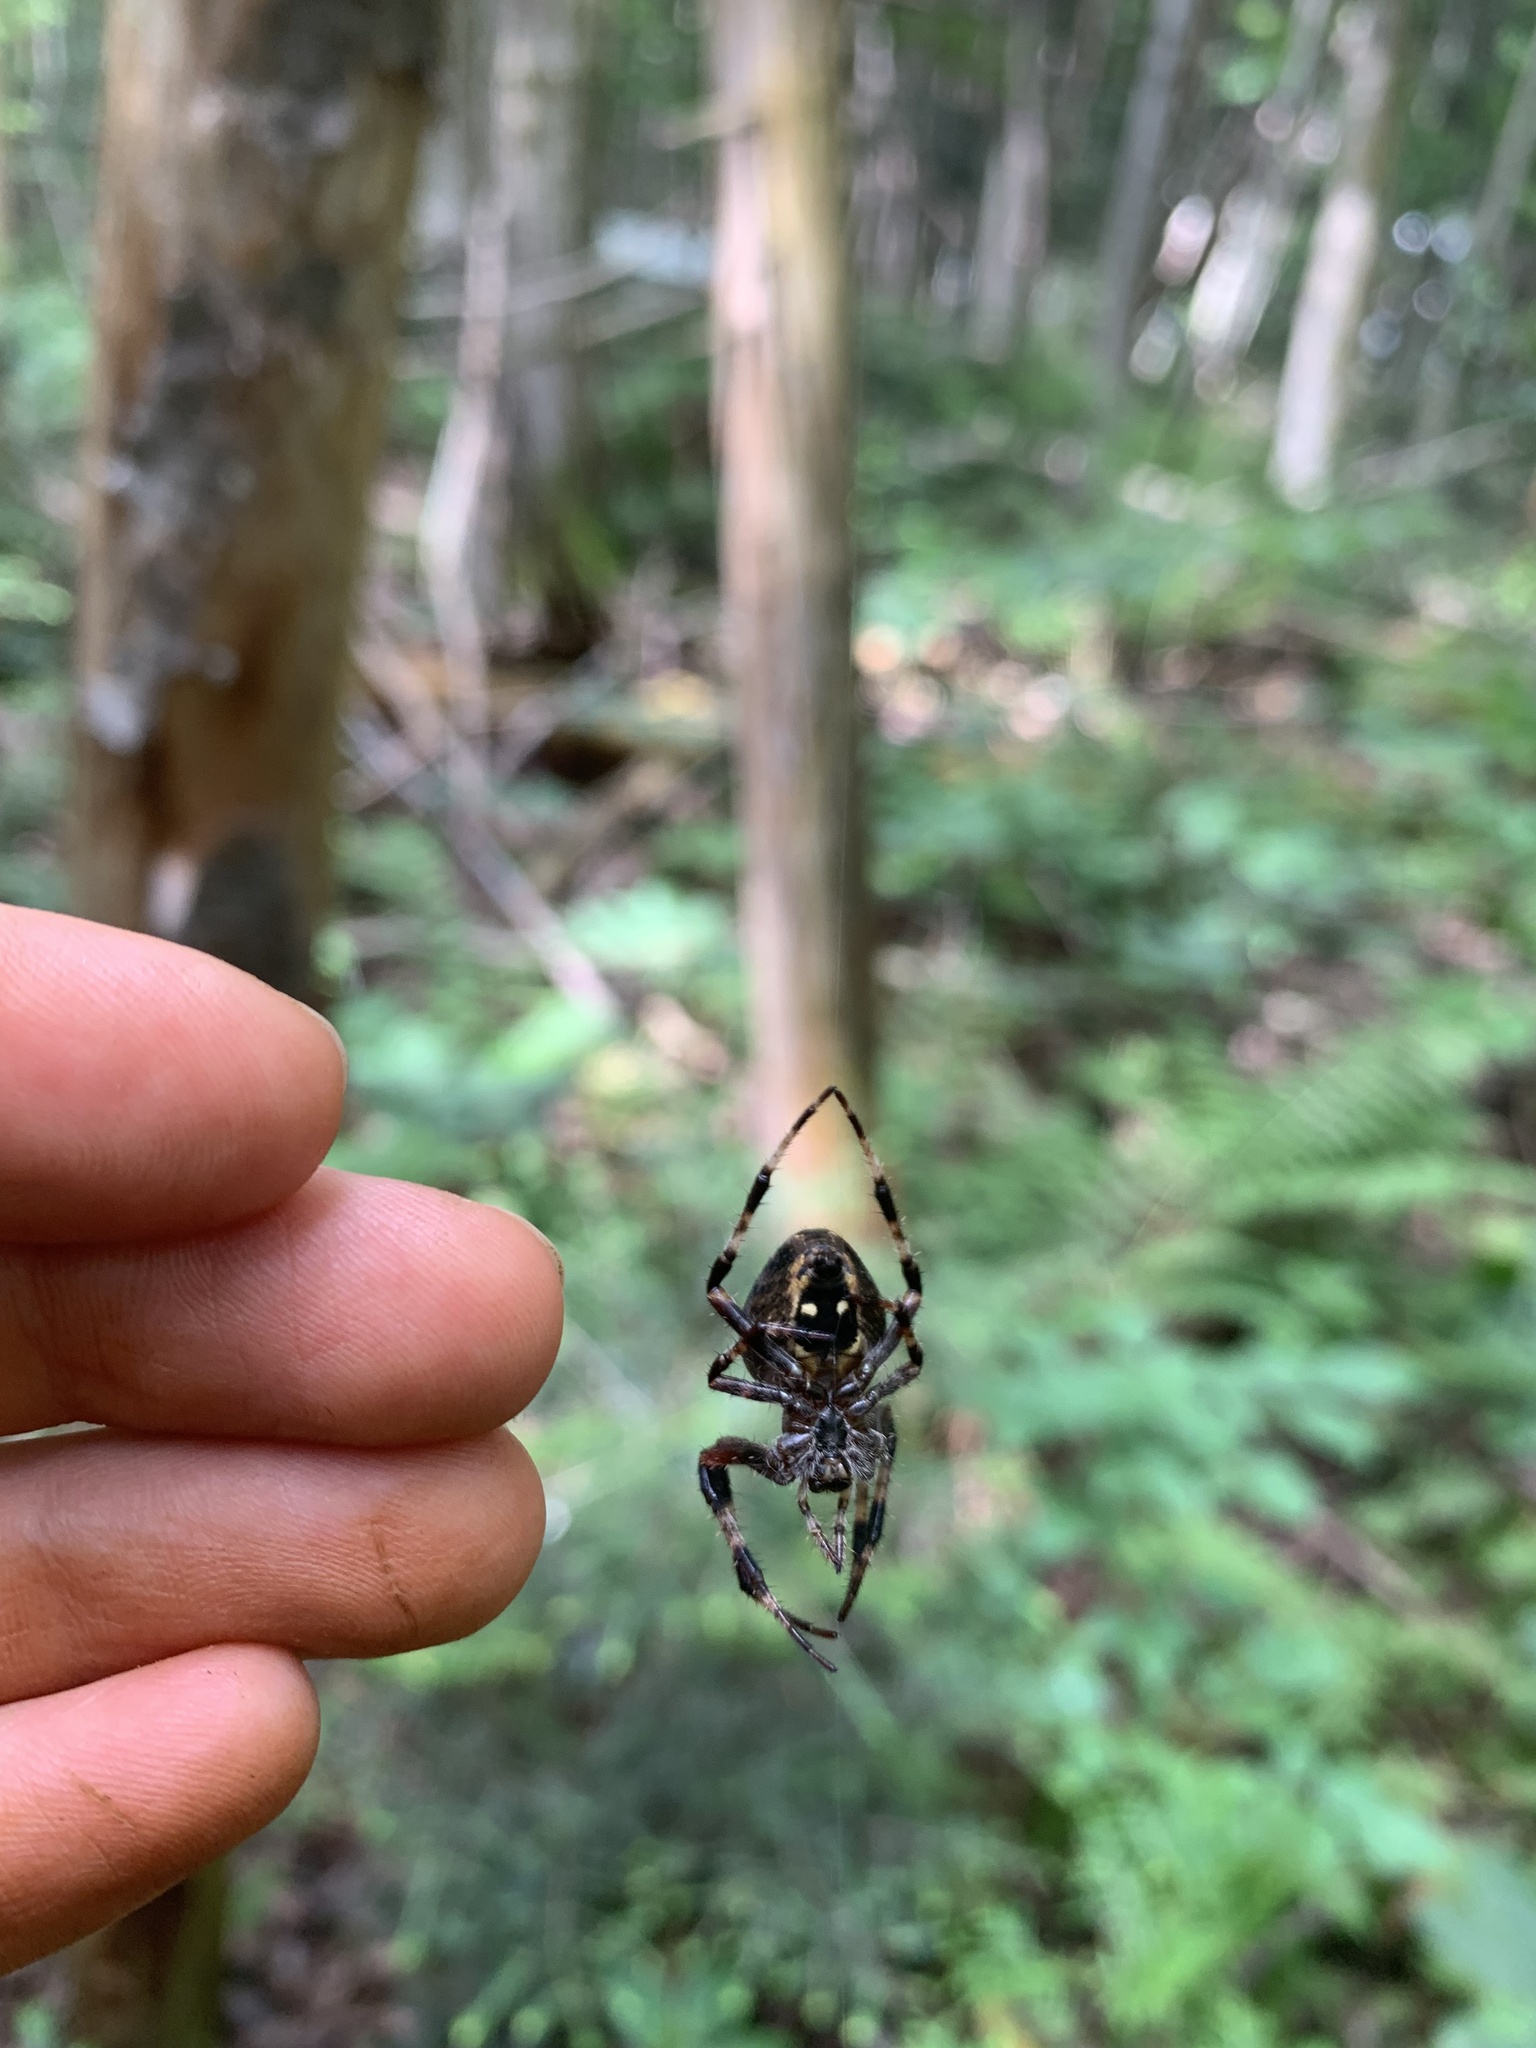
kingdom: Animalia
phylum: Arthropoda
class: Arachnida
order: Araneae
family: Araneidae
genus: Araneus
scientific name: Araneus nordmanni
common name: Nordmann's orbweaver
